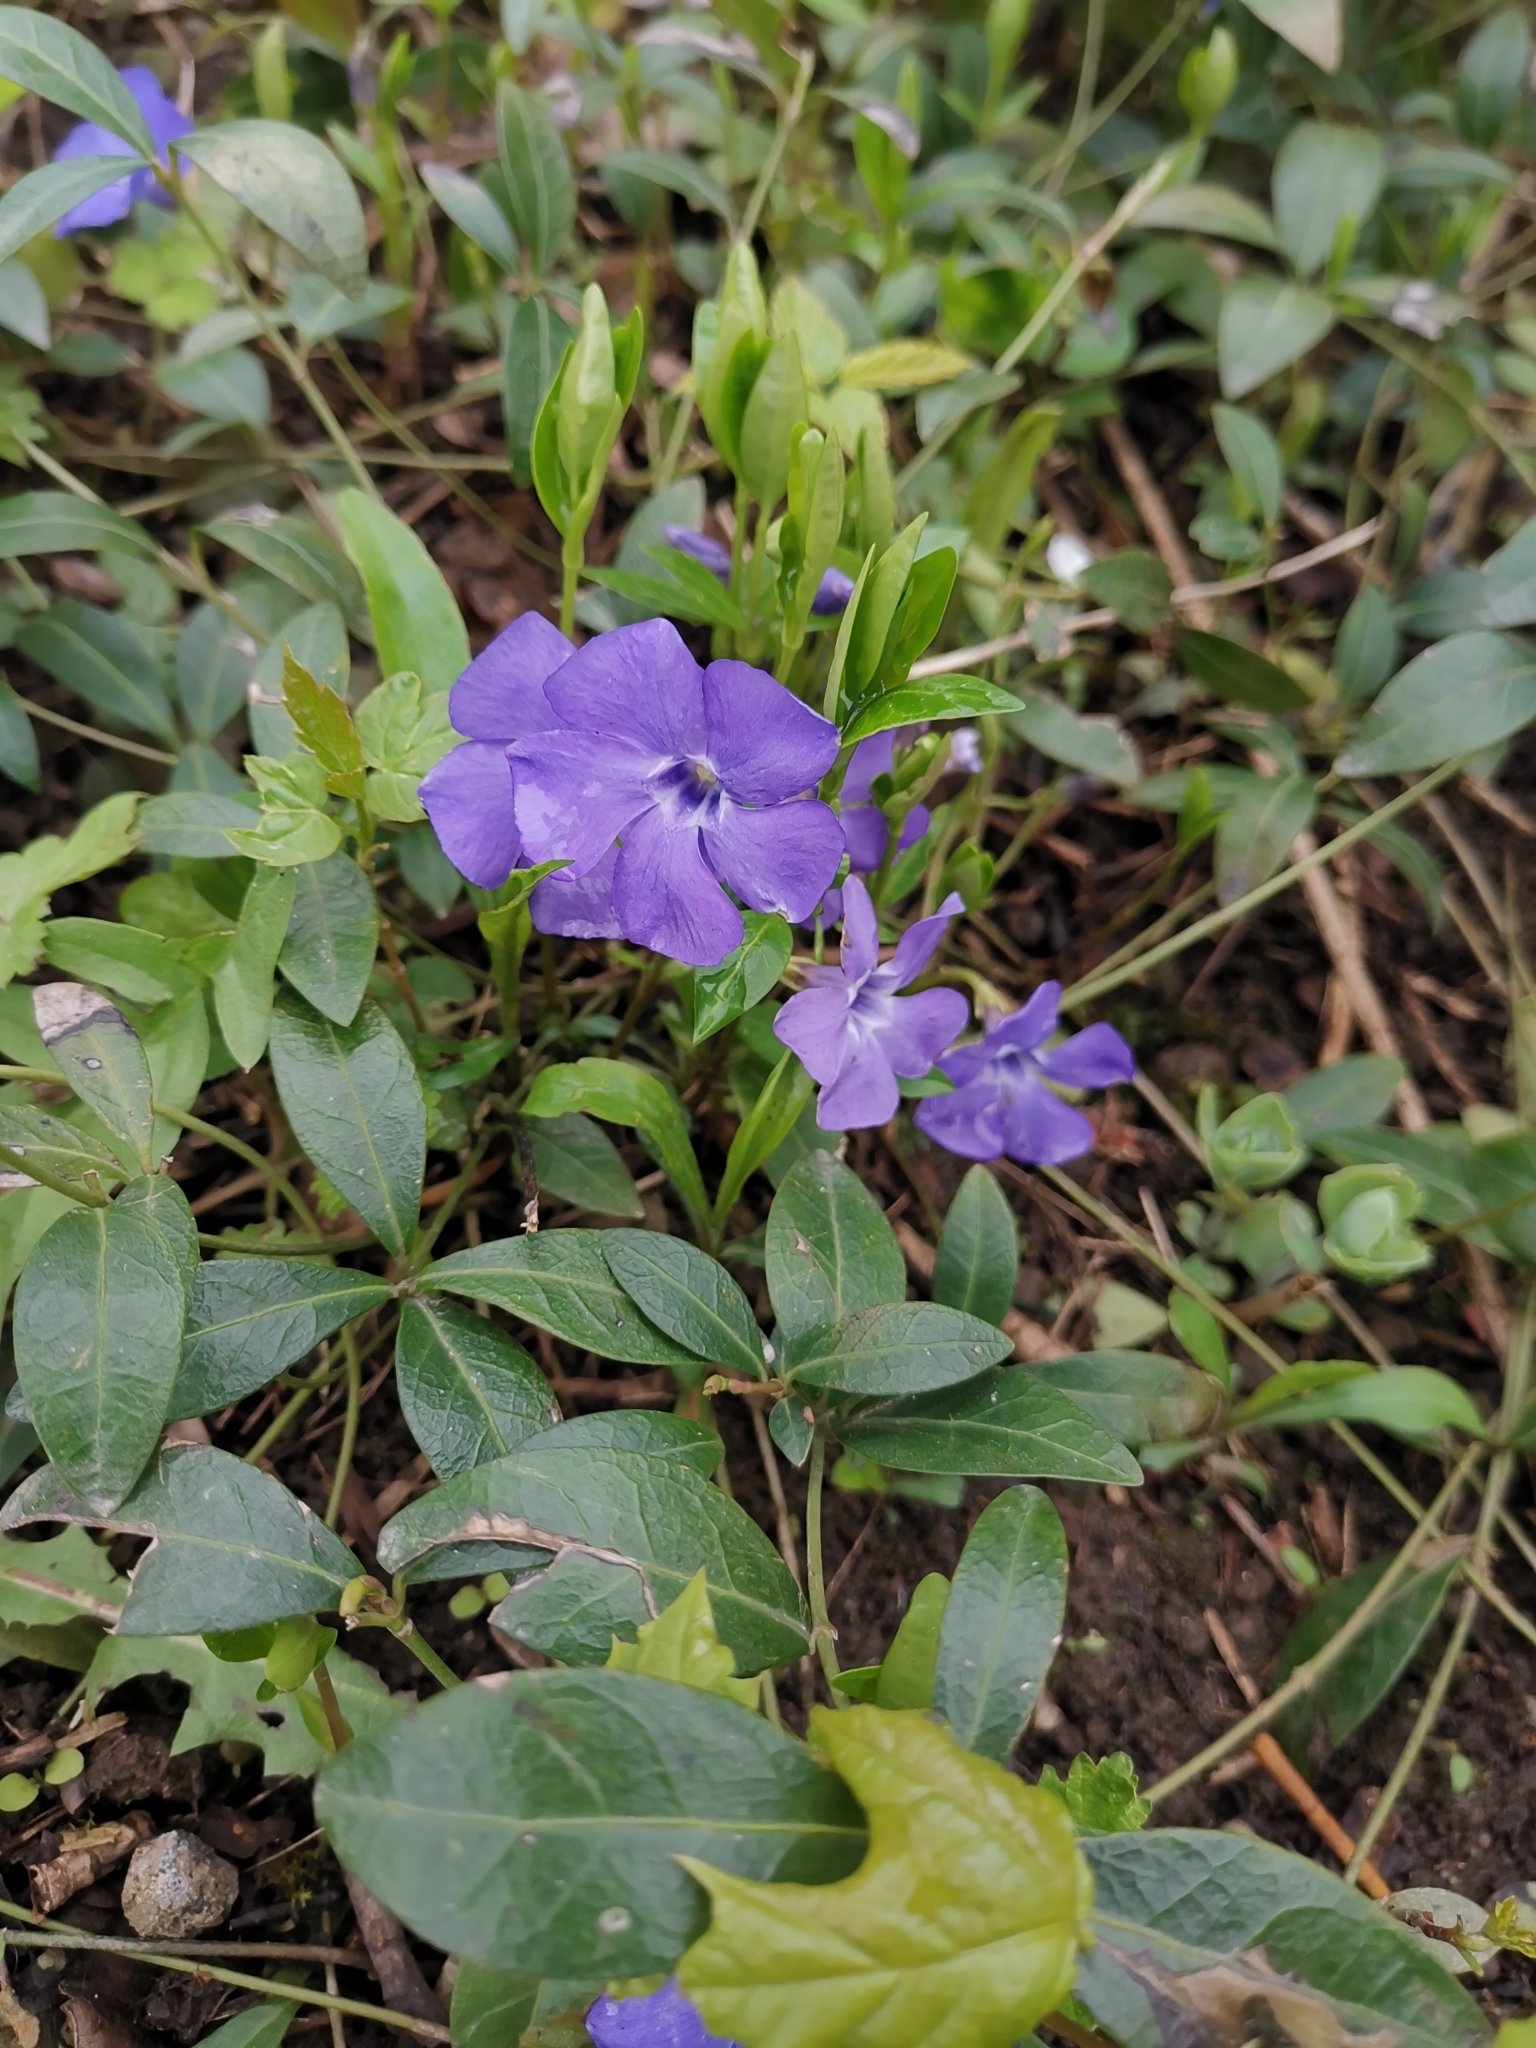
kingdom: Plantae
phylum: Tracheophyta
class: Magnoliopsida
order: Gentianales
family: Apocynaceae
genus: Vinca
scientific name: Vinca minor
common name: Lesser periwinkle
